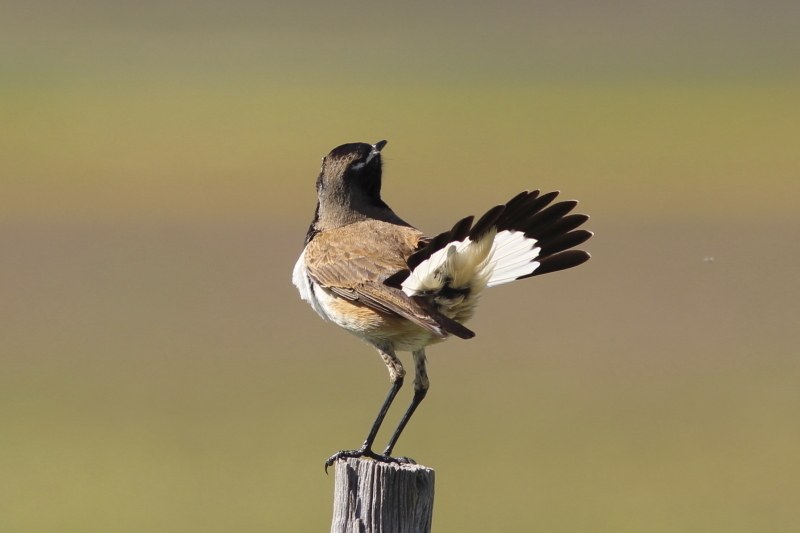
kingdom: Animalia
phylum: Chordata
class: Aves
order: Passeriformes
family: Muscicapidae
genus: Oenanthe
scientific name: Oenanthe pileata
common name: Capped wheatear
